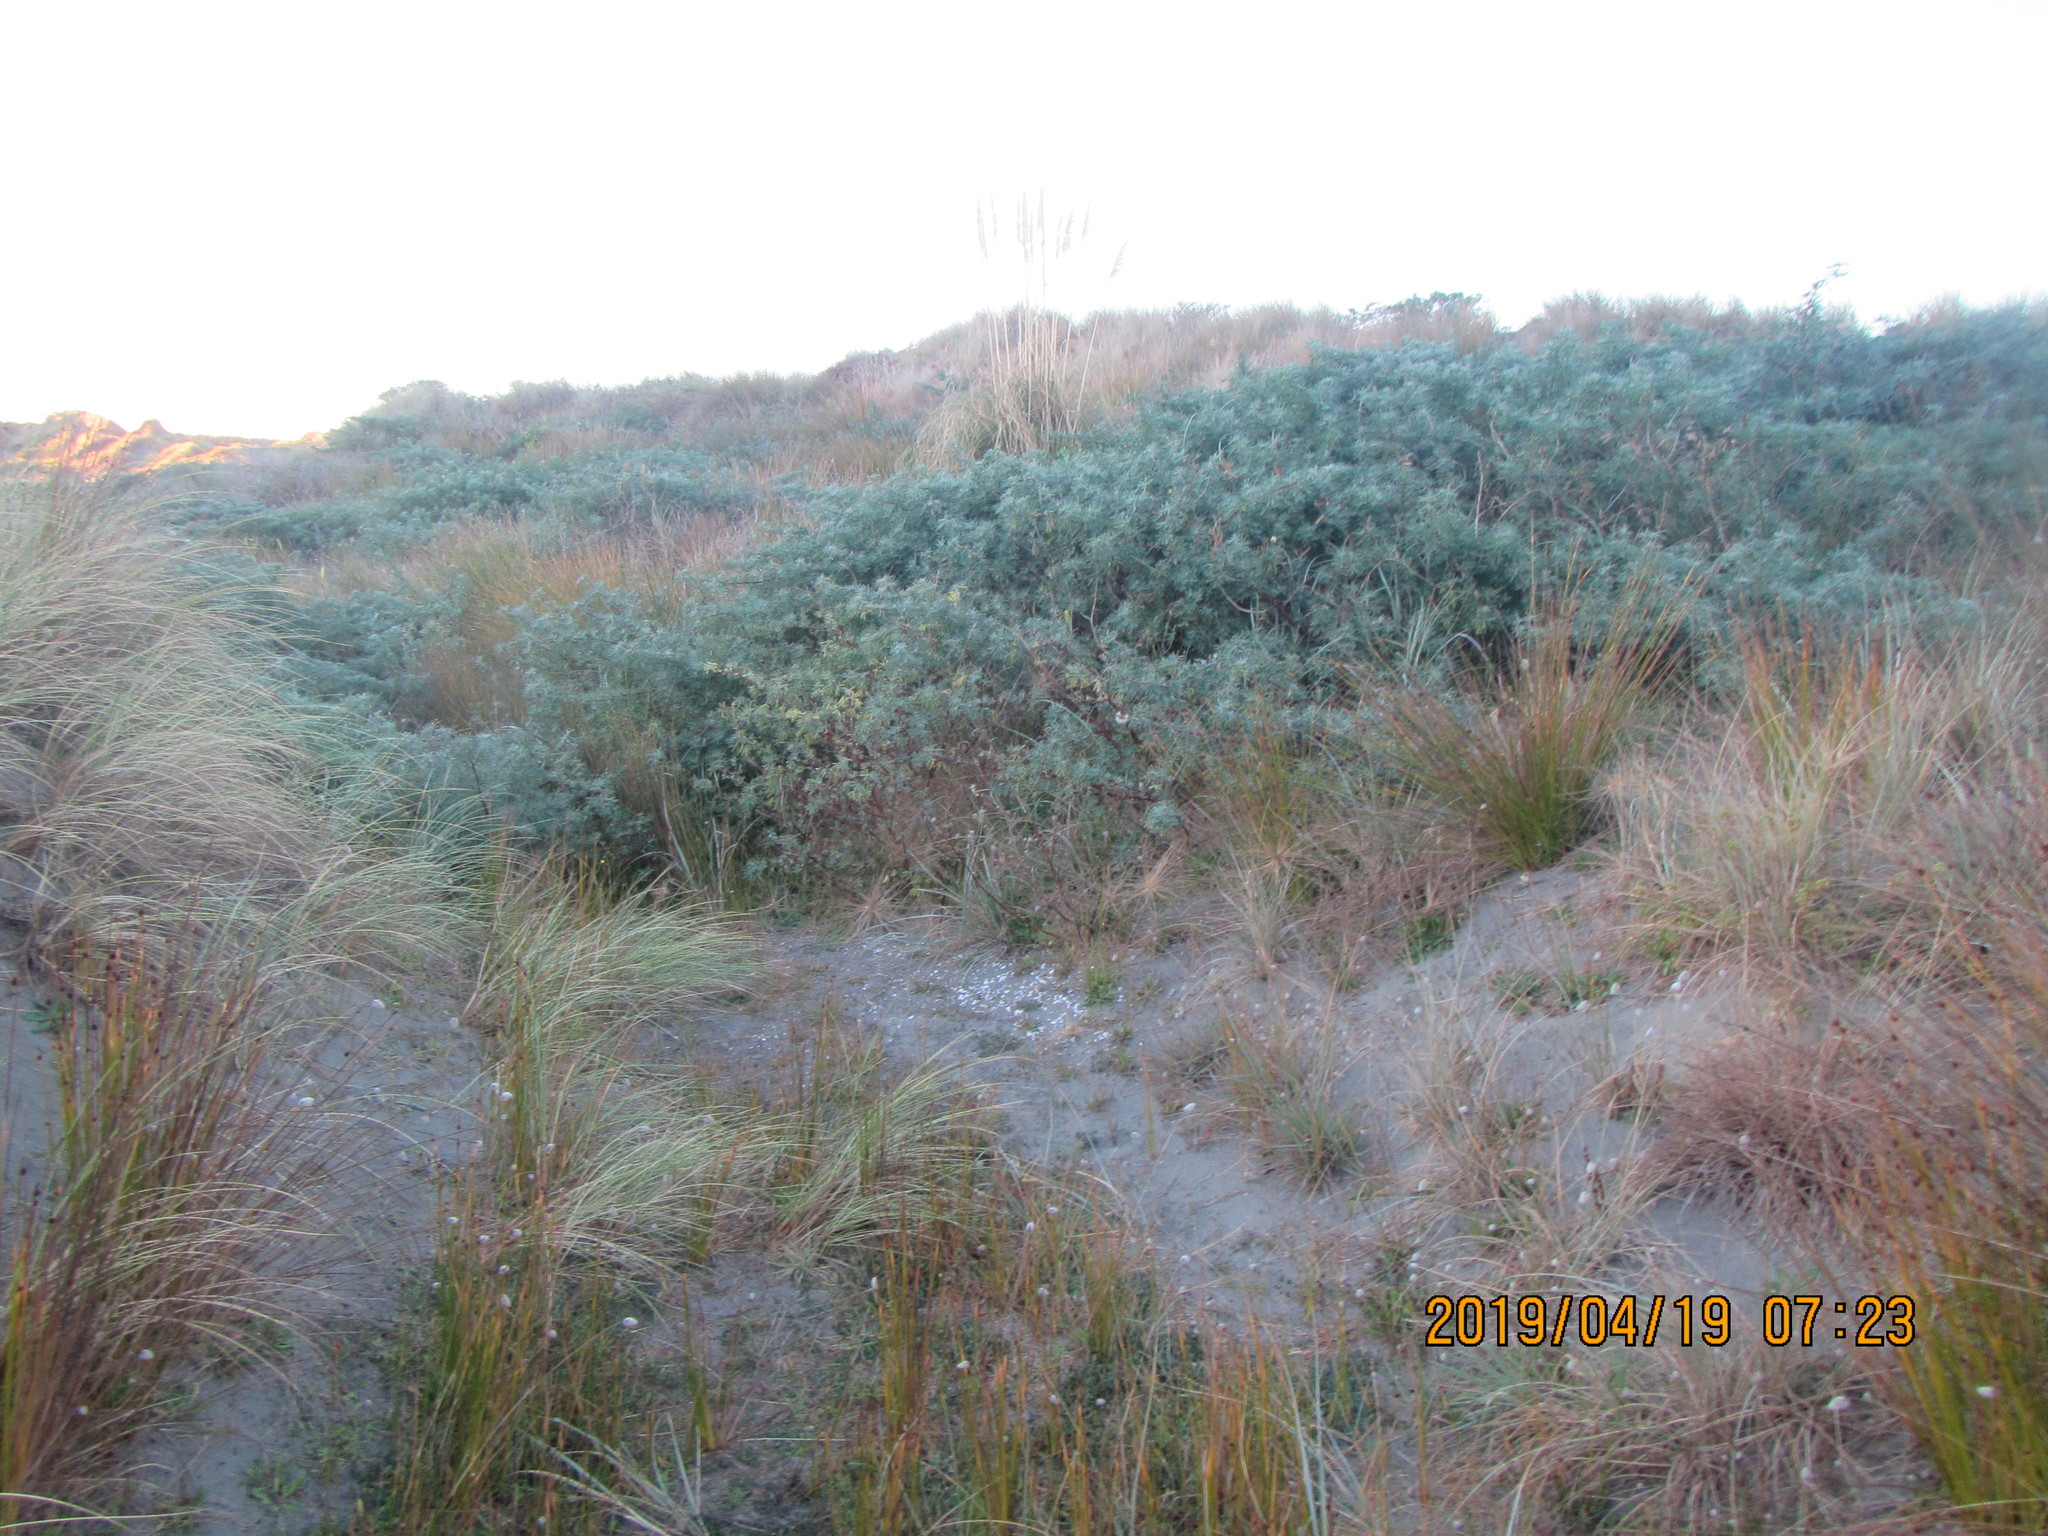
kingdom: Plantae
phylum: Tracheophyta
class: Magnoliopsida
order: Fabales
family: Fabaceae
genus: Lupinus
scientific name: Lupinus arboreus
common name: Yellow bush lupine
